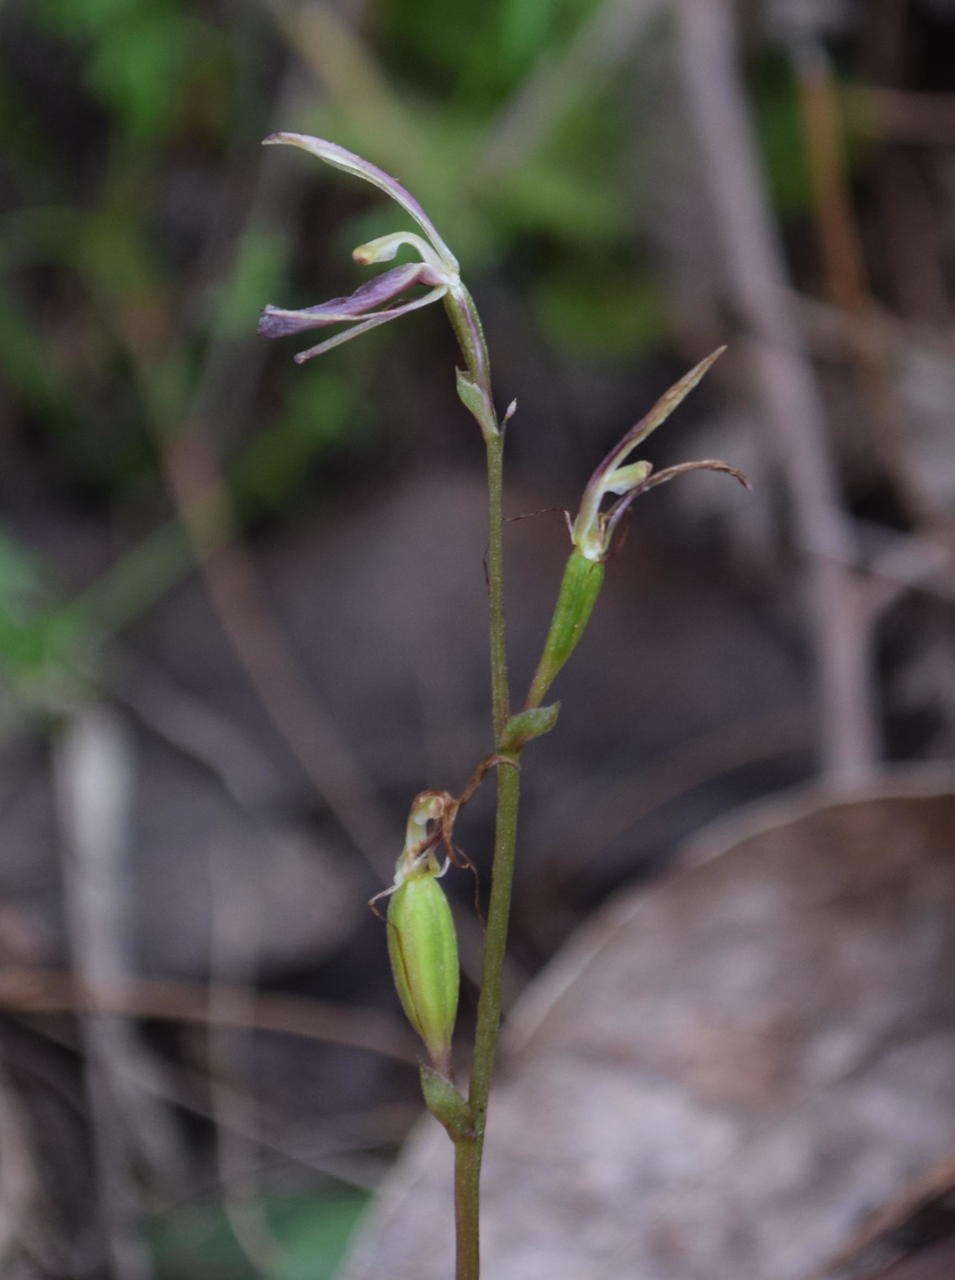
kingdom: Plantae
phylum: Tracheophyta
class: Liliopsida
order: Asparagales
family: Orchidaceae
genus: Cyrtostylis
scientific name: Cyrtostylis reniformis
